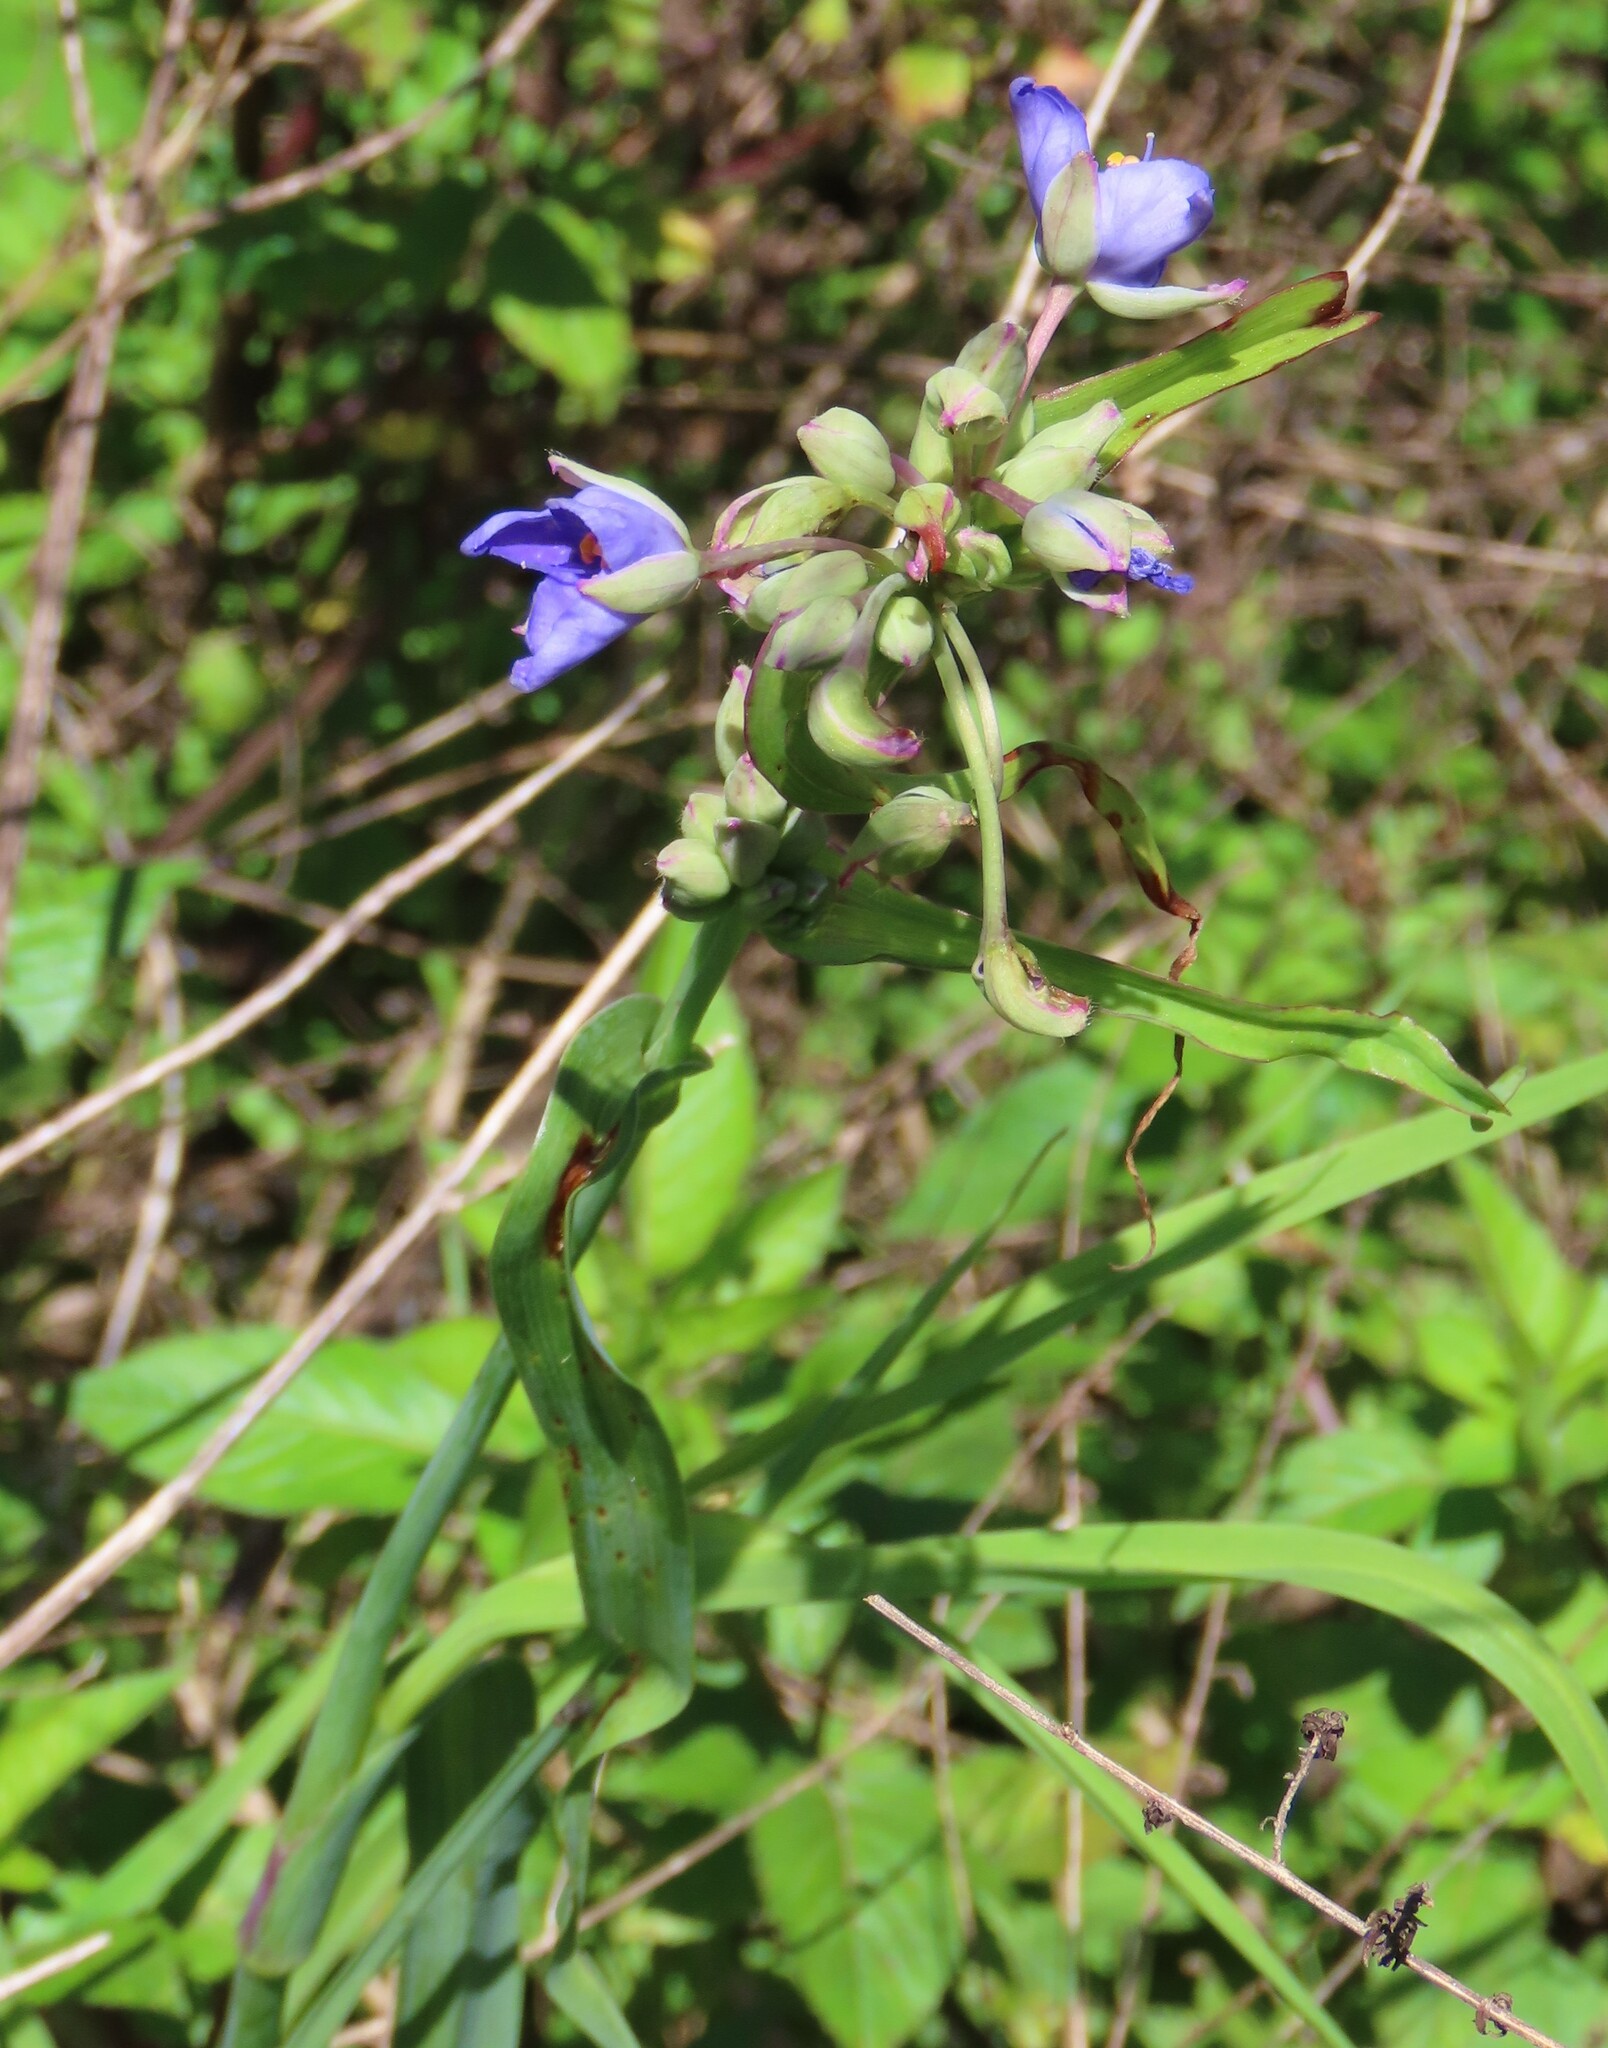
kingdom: Plantae
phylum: Tracheophyta
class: Liliopsida
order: Commelinales
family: Commelinaceae
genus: Tradescantia
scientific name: Tradescantia ohiensis
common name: Ohio spiderwort
